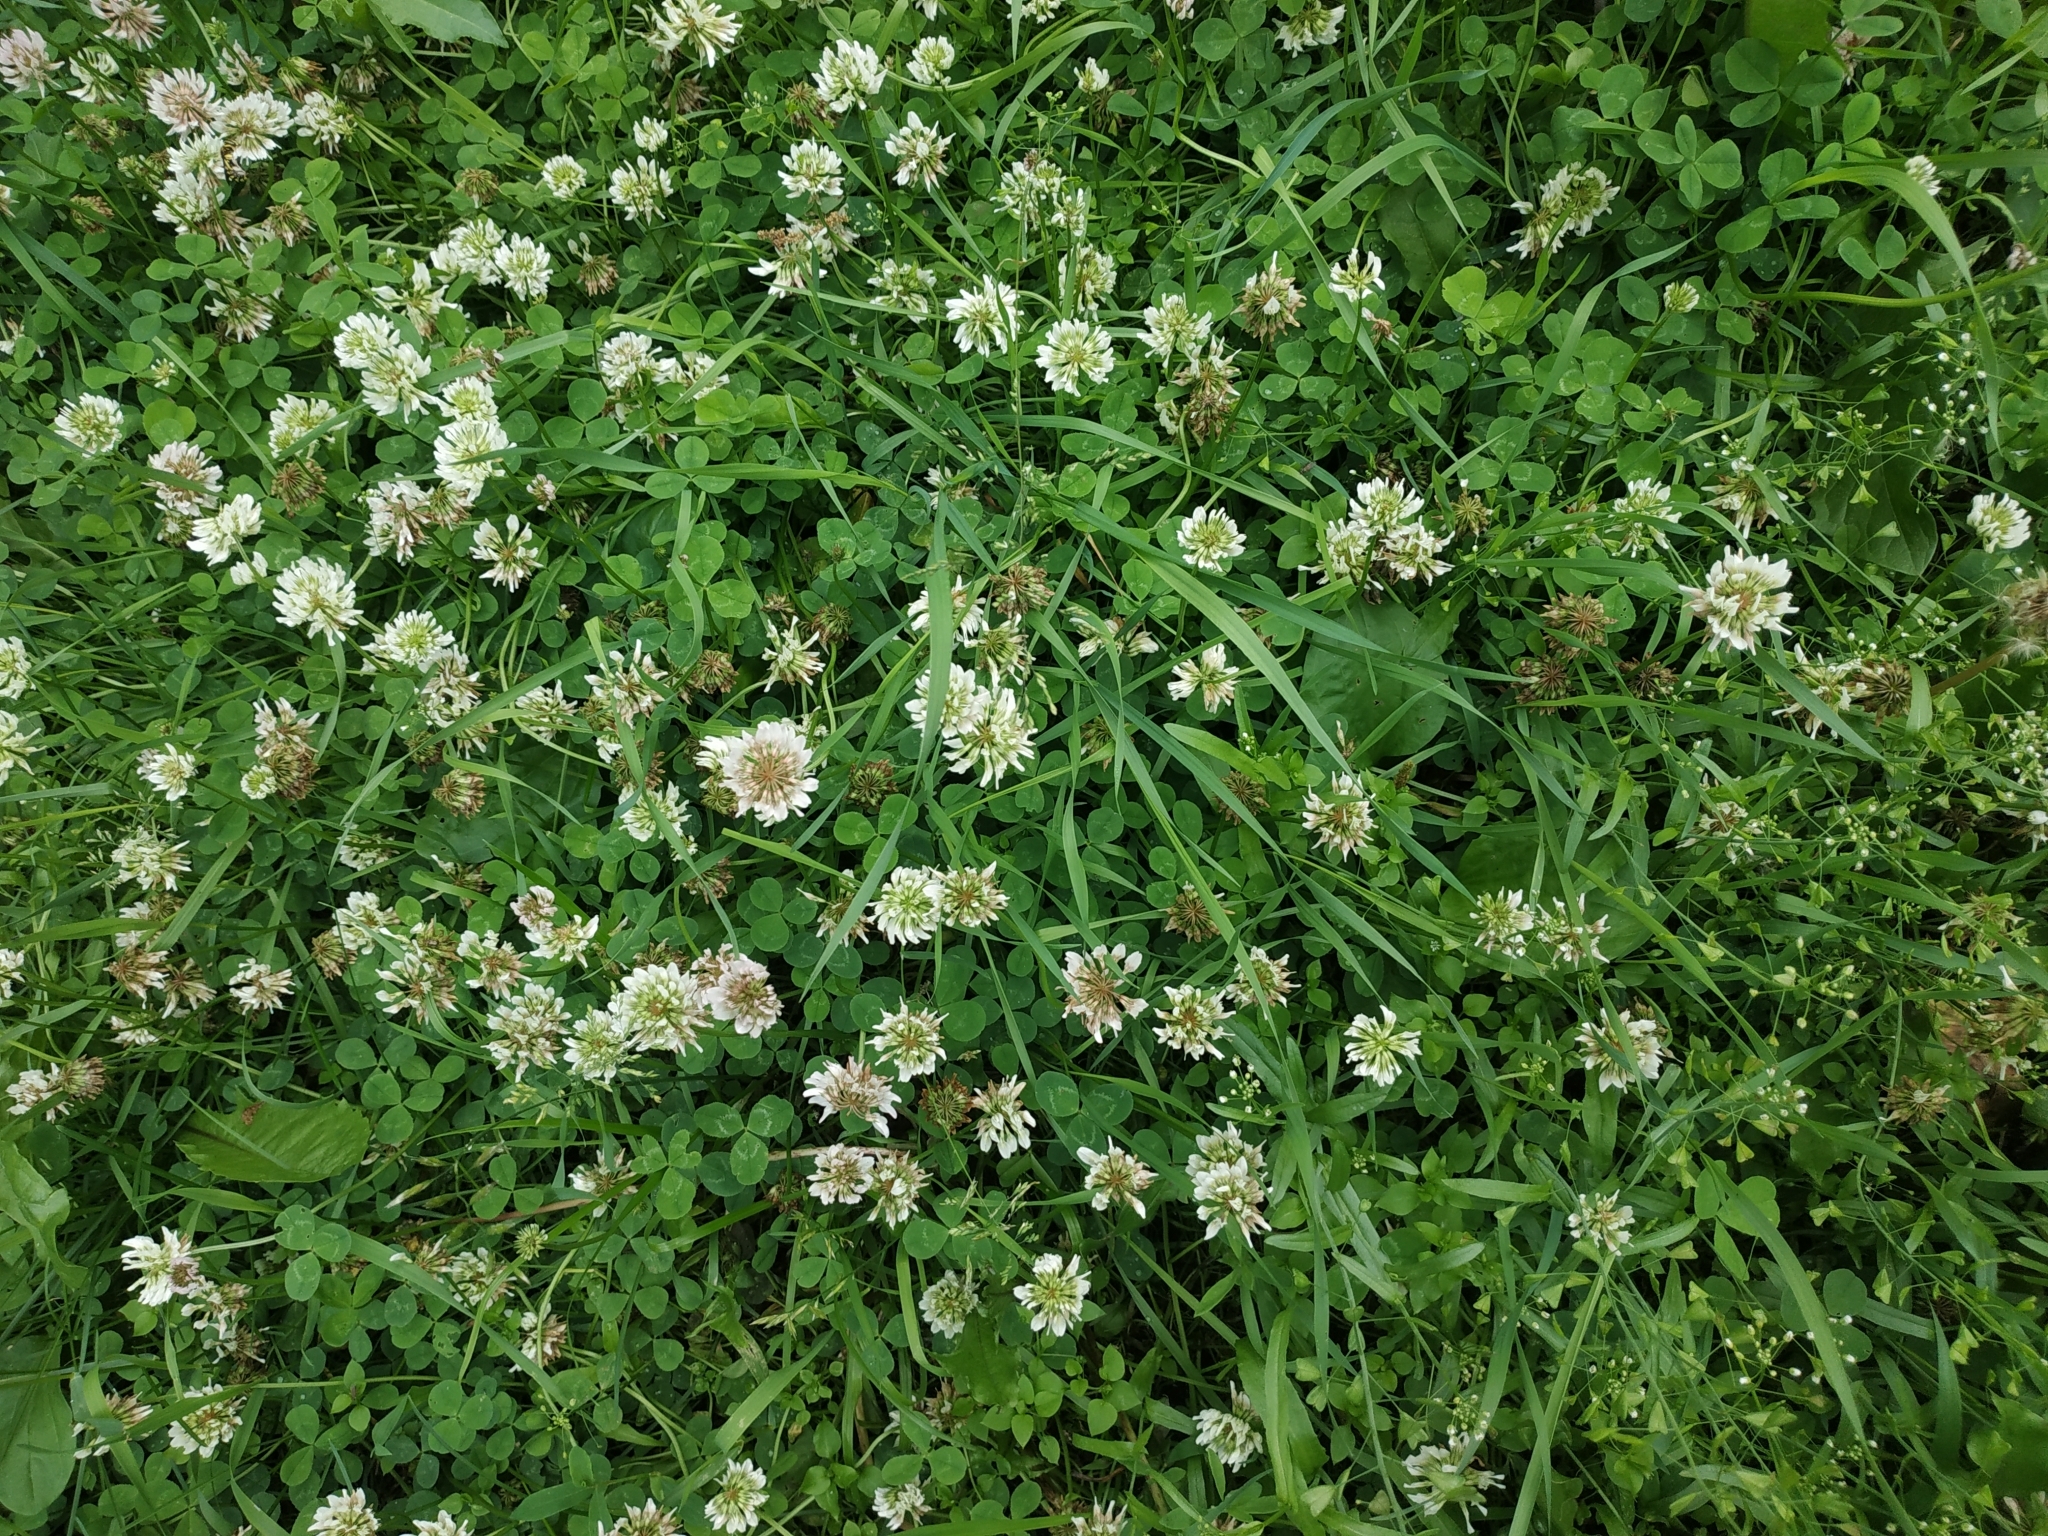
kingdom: Plantae
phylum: Tracheophyta
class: Magnoliopsida
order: Fabales
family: Fabaceae
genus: Trifolium
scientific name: Trifolium repens
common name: White clover
